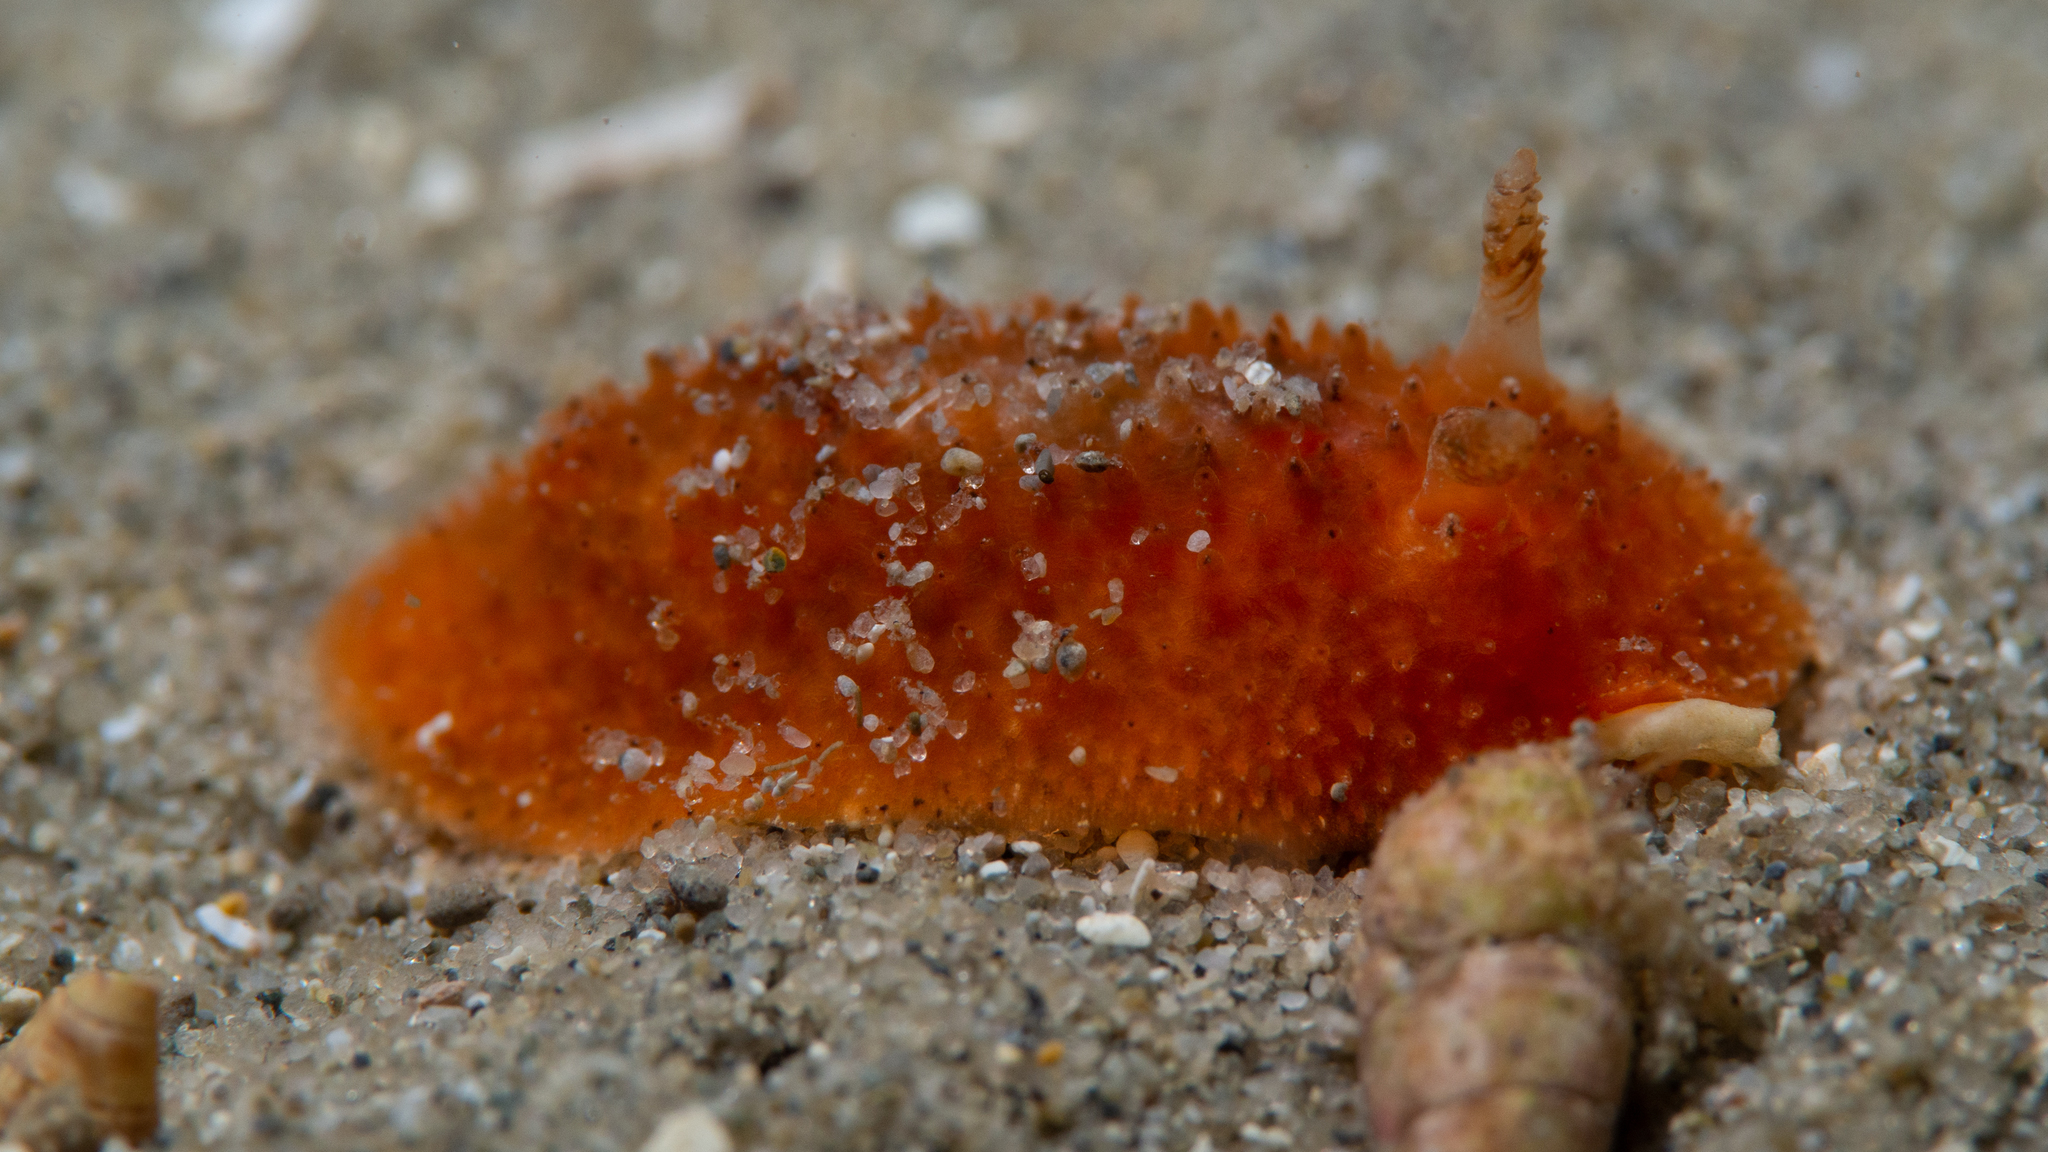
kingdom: Animalia
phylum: Mollusca
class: Gastropoda
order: Nudibranchia
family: Dorididae
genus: Doris
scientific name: Doris cameroni
